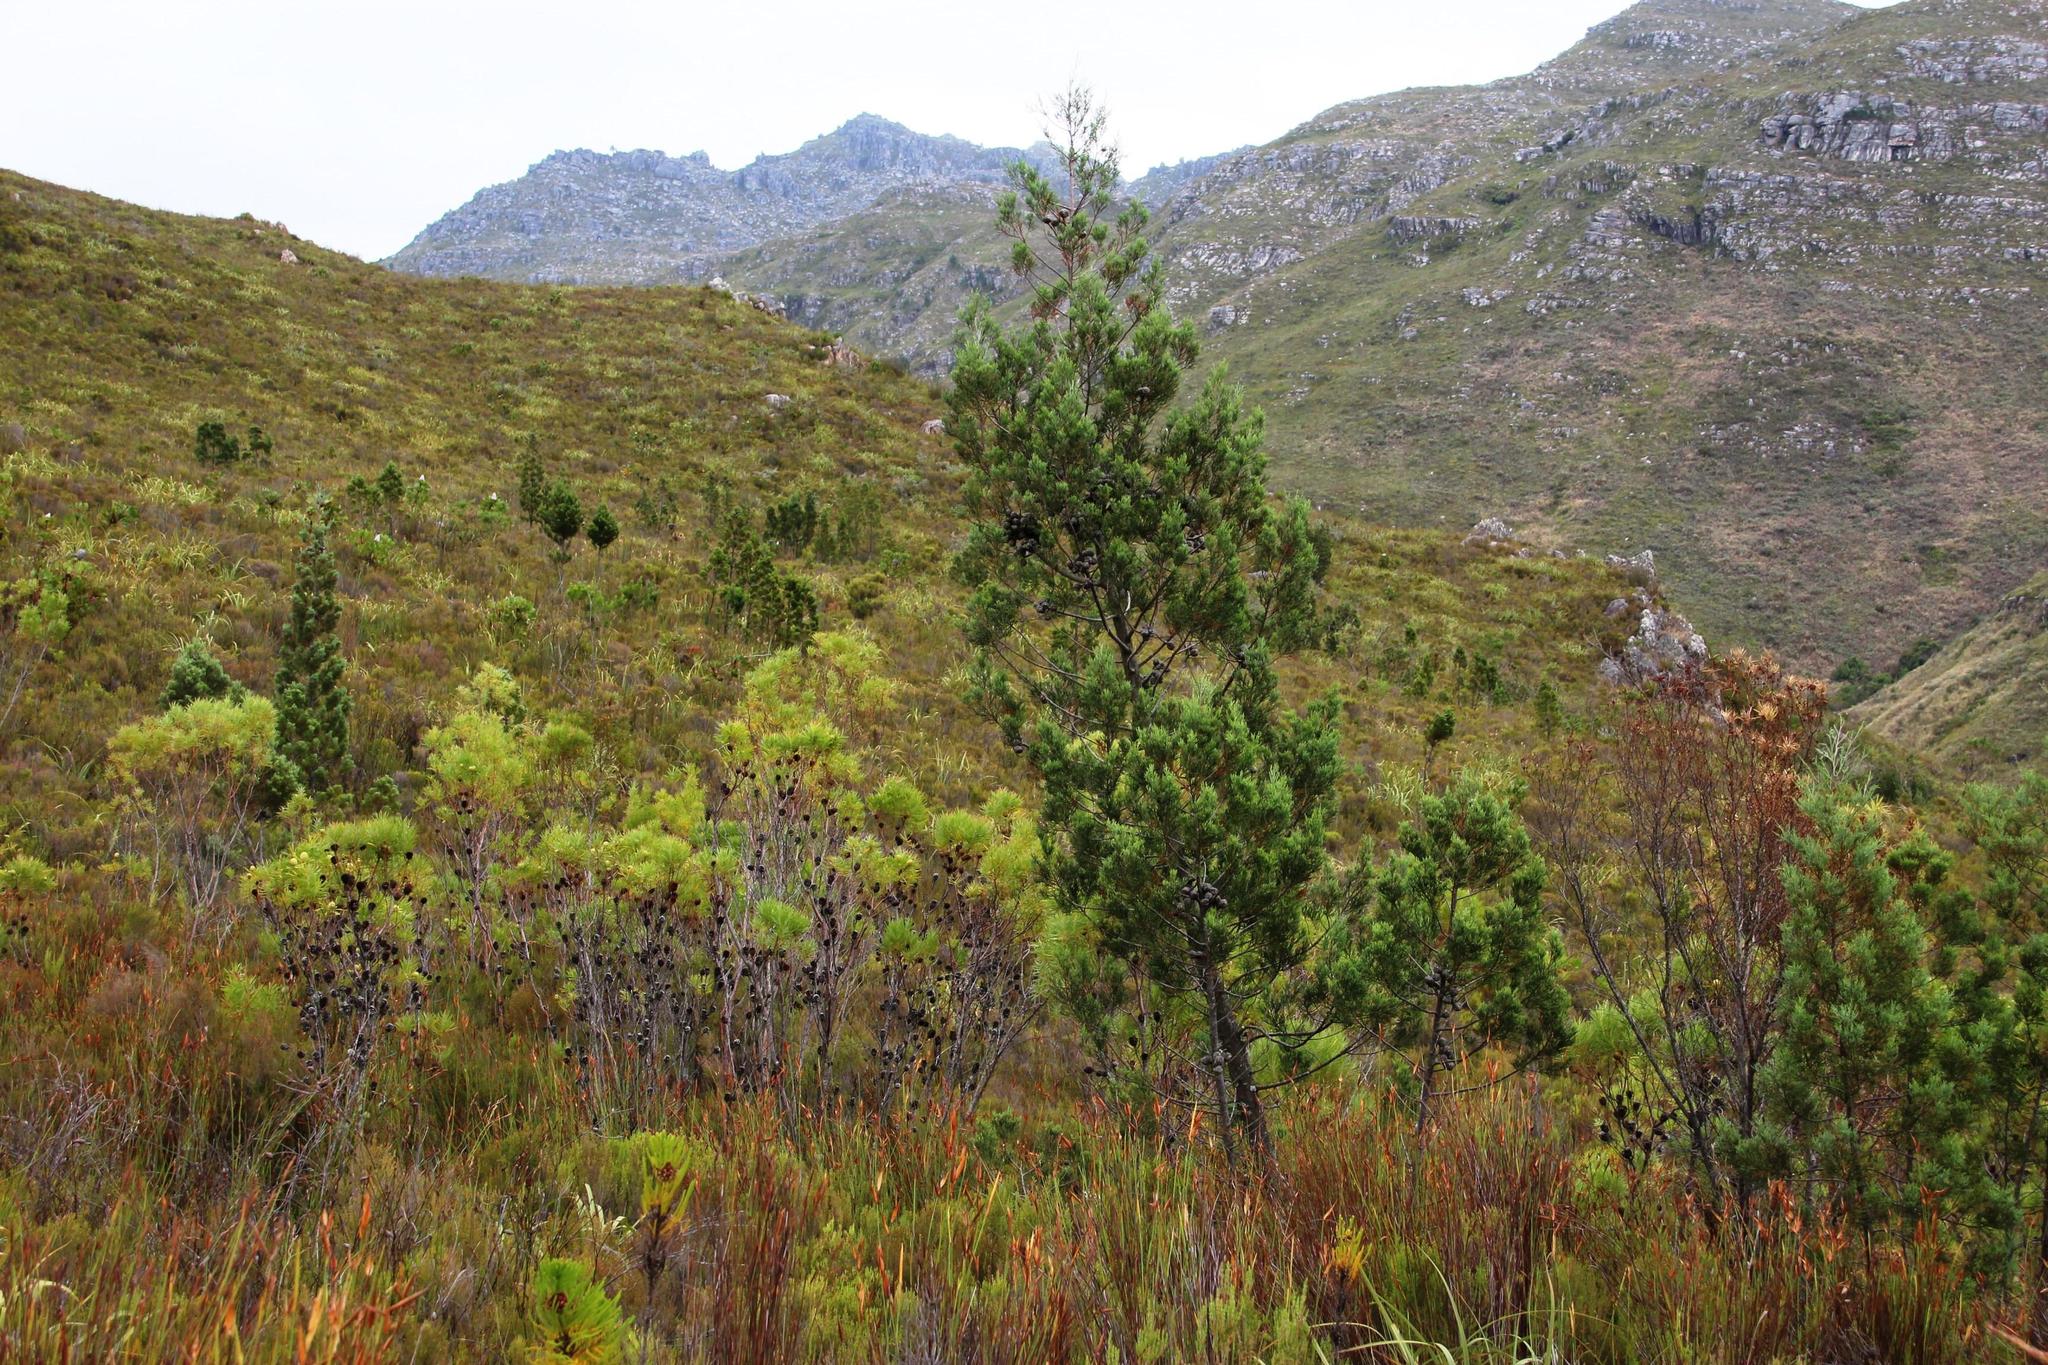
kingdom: Plantae
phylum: Tracheophyta
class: Pinopsida
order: Pinales
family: Cupressaceae
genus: Widdringtonia
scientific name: Widdringtonia nodiflora
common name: Cape cypress
